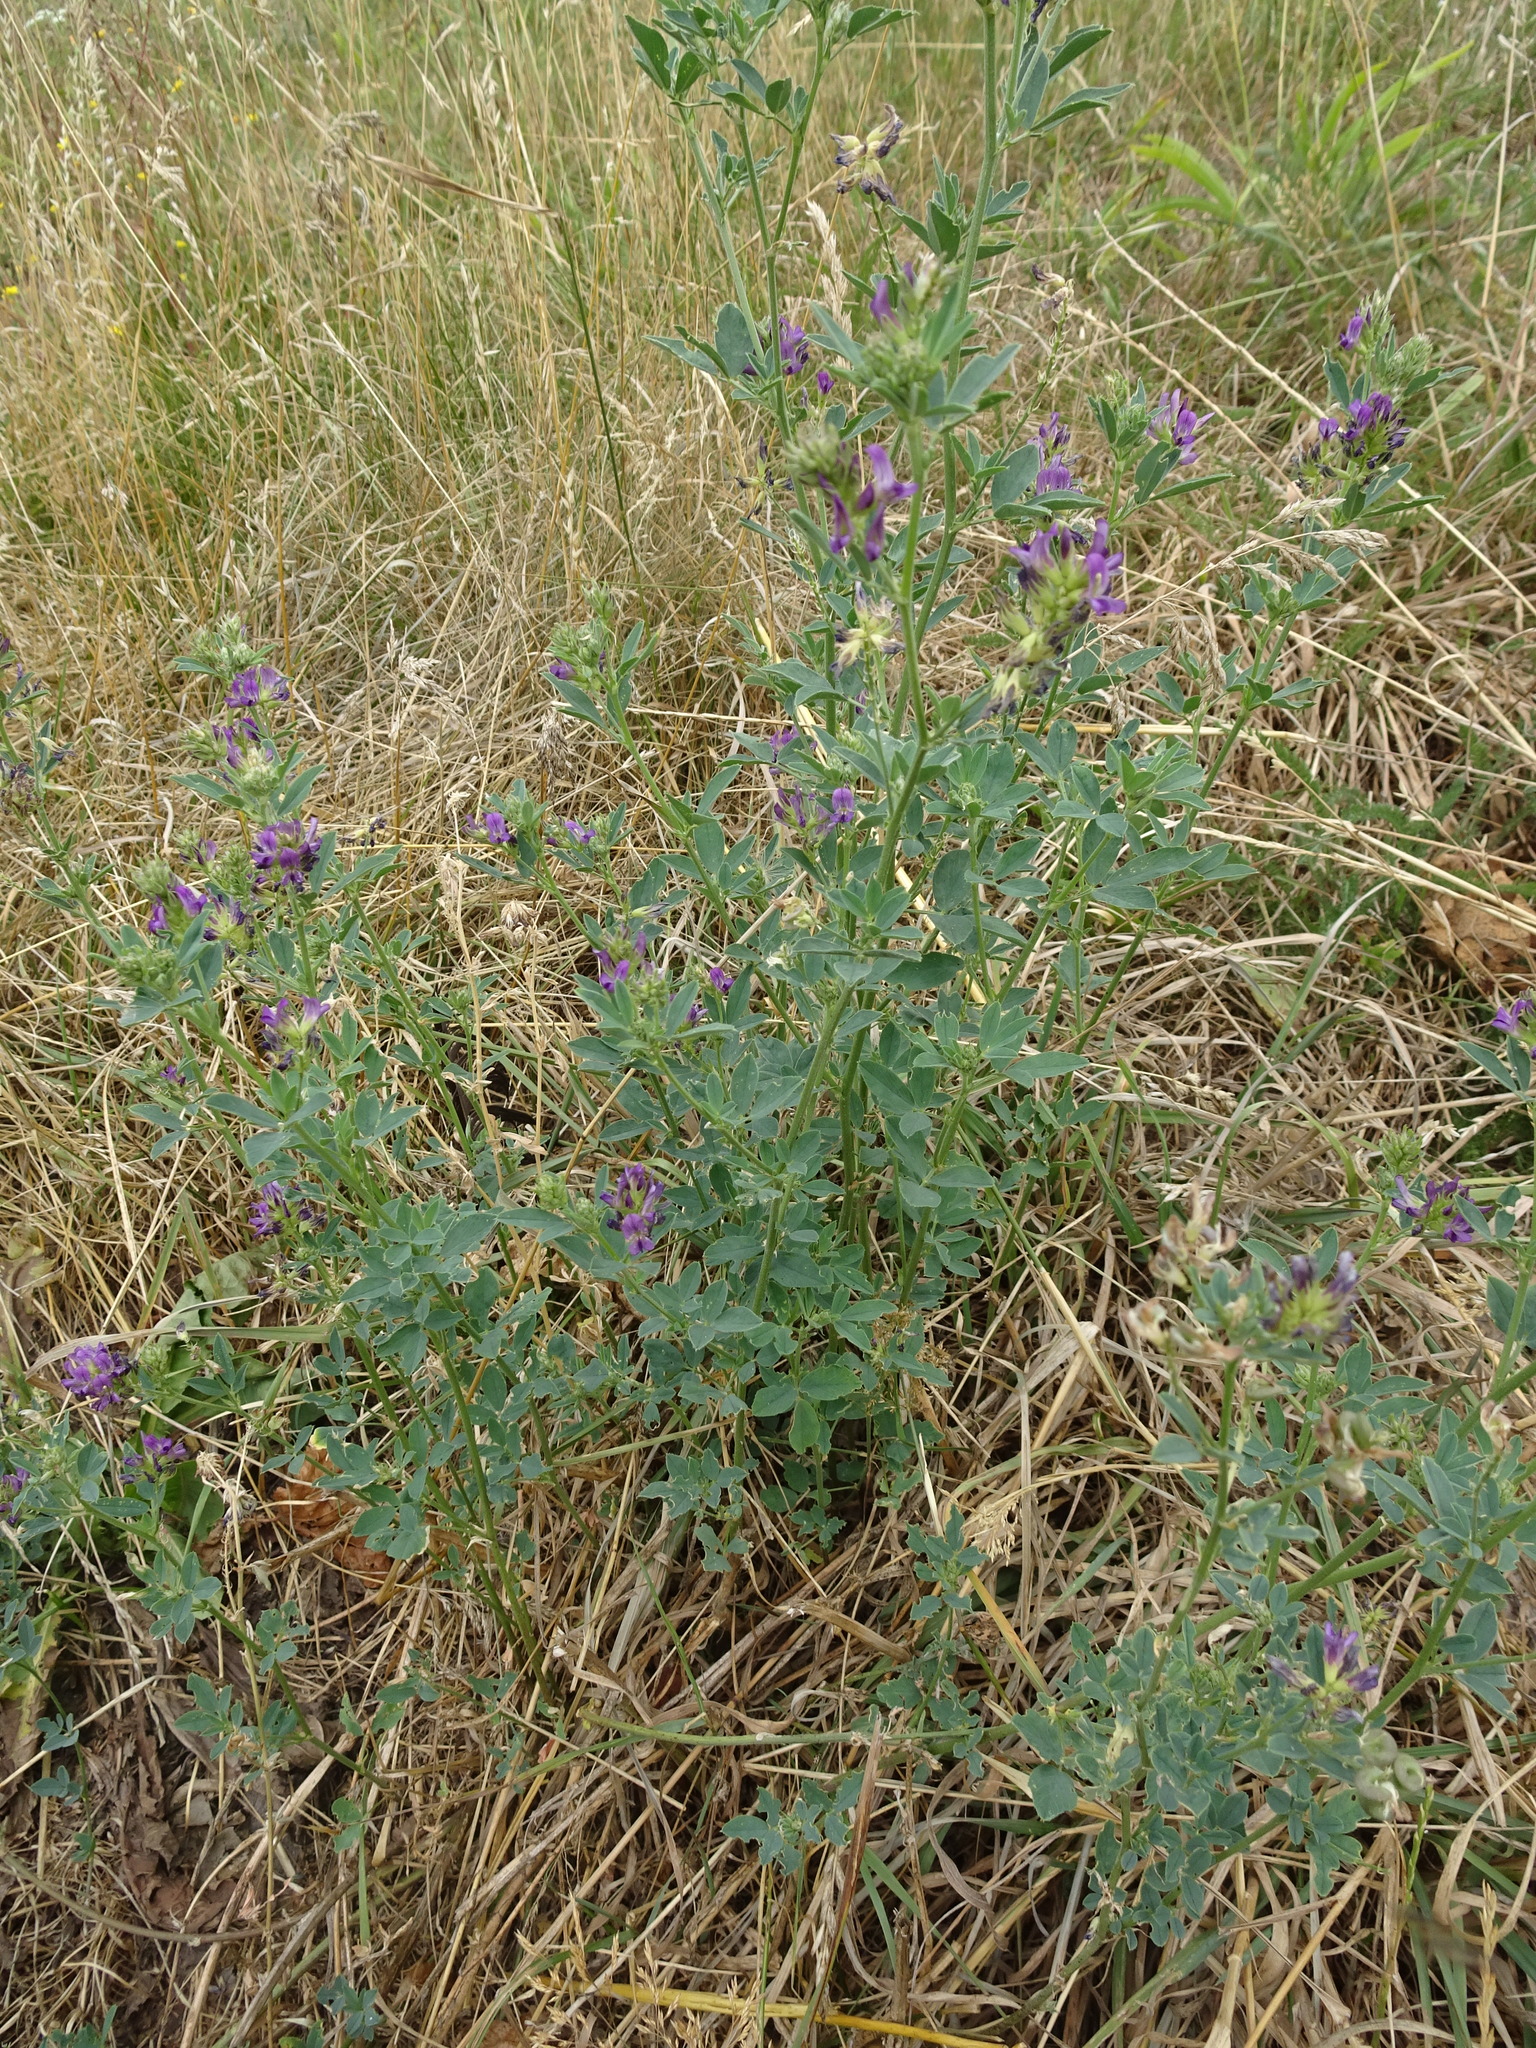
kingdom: Plantae
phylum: Tracheophyta
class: Magnoliopsida
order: Fabales
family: Fabaceae
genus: Medicago
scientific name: Medicago sativa
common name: Alfalfa
